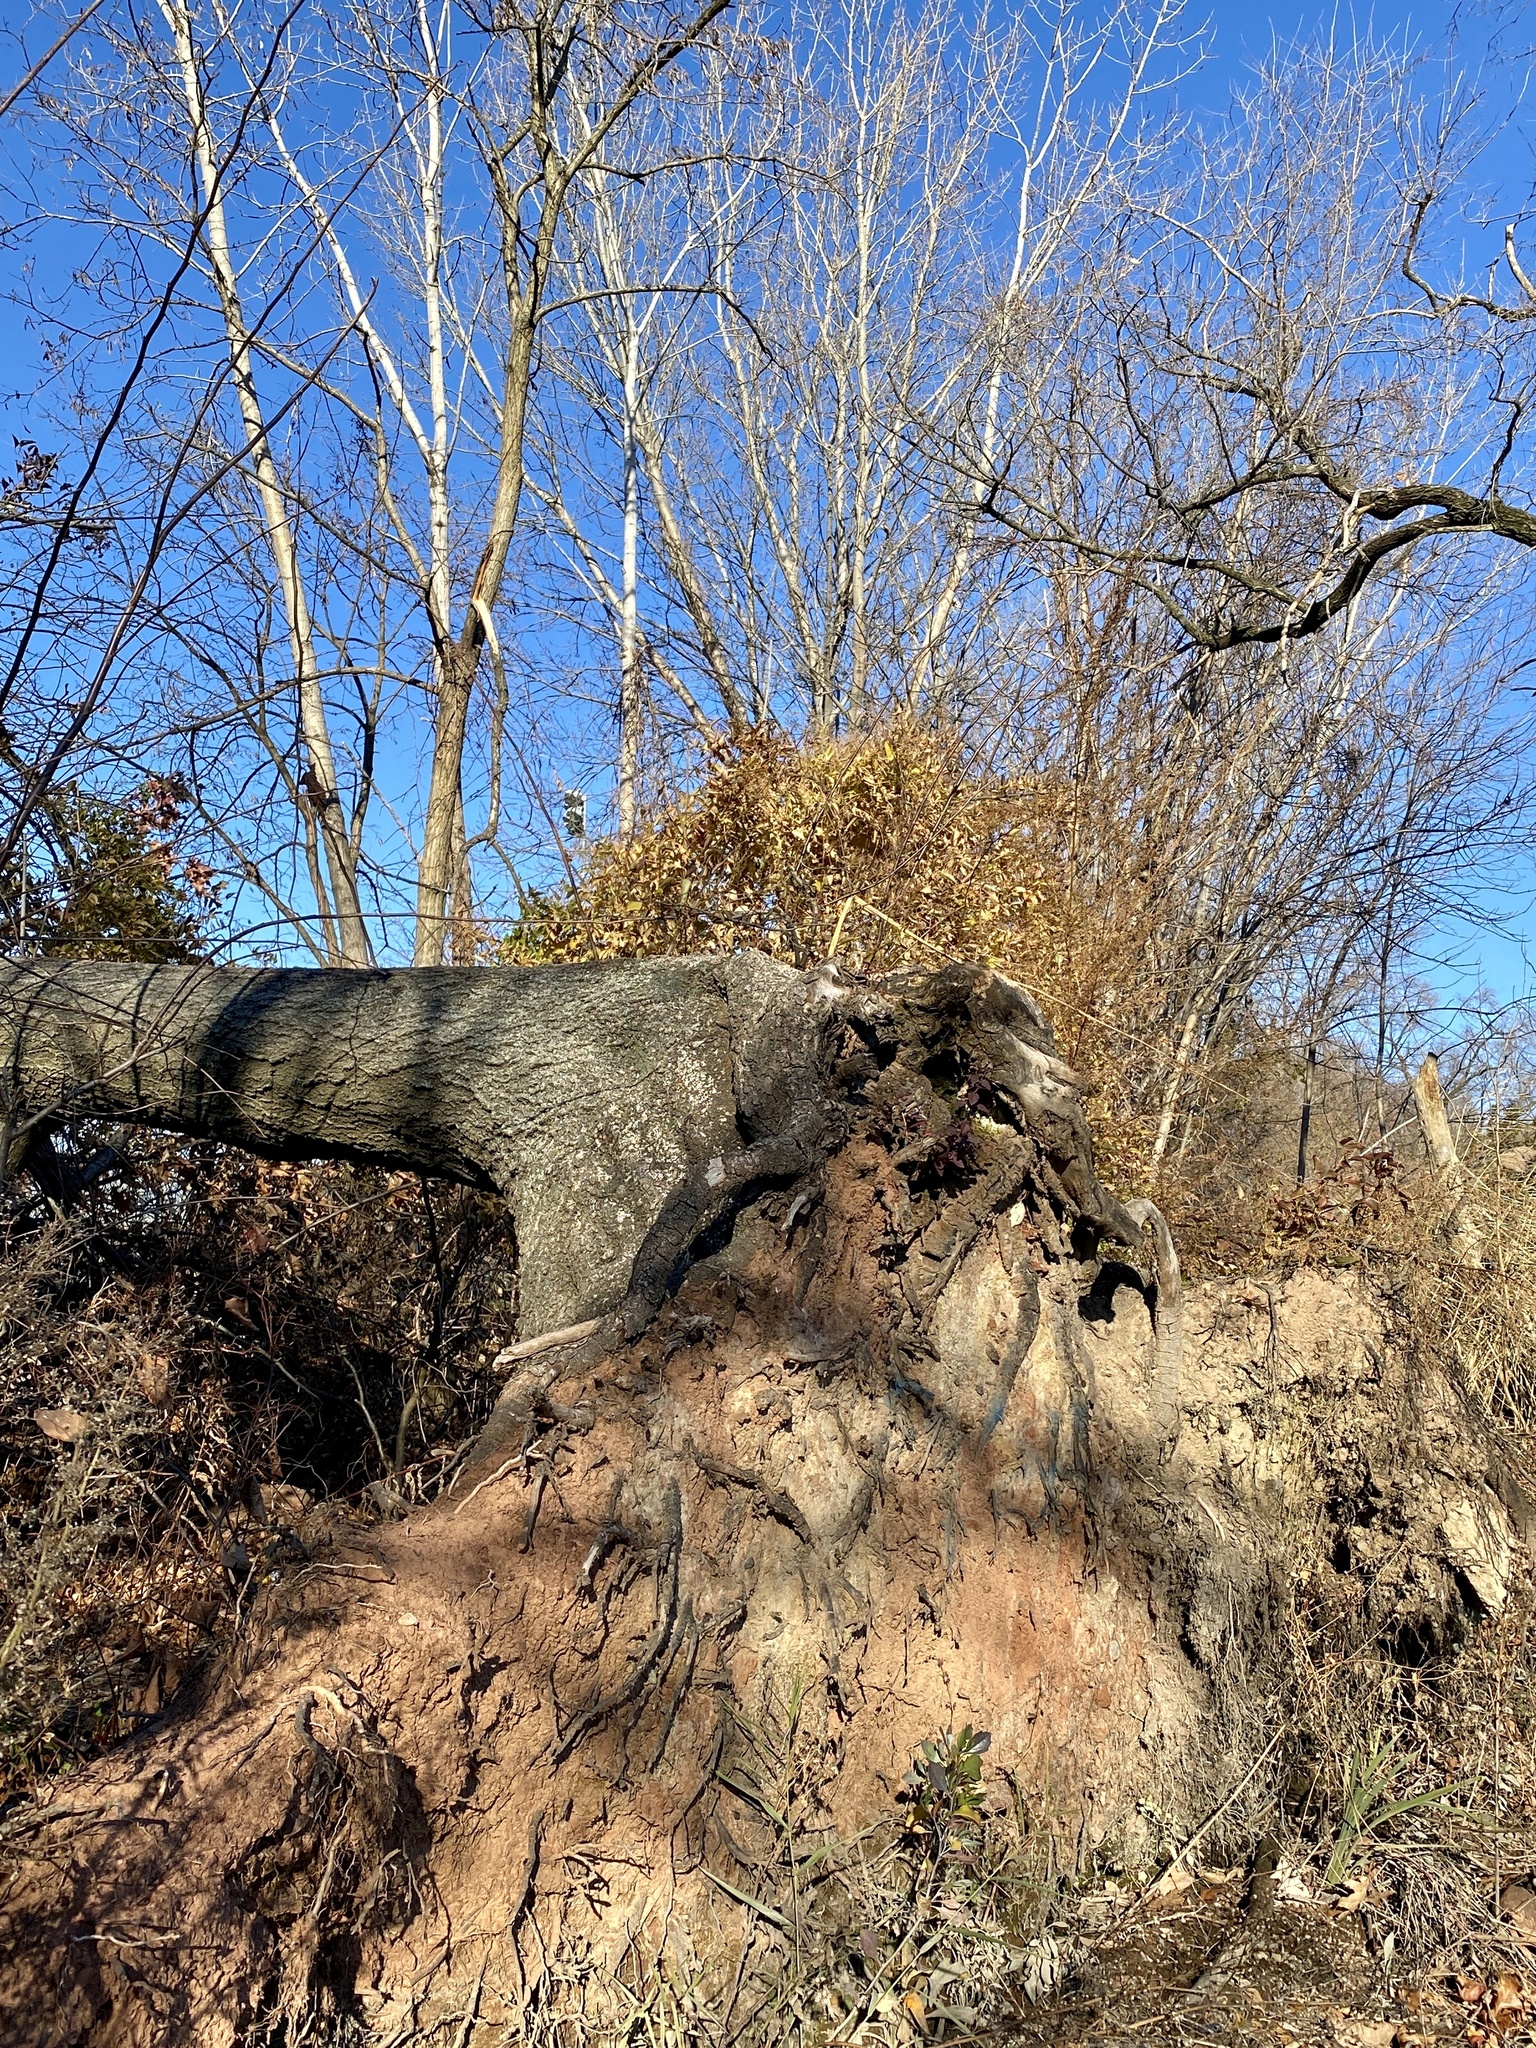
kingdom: Plantae
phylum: Tracheophyta
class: Magnoliopsida
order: Asterales
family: Asteraceae
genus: Baccharis
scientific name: Baccharis halimifolia
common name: Eastern baccharis
